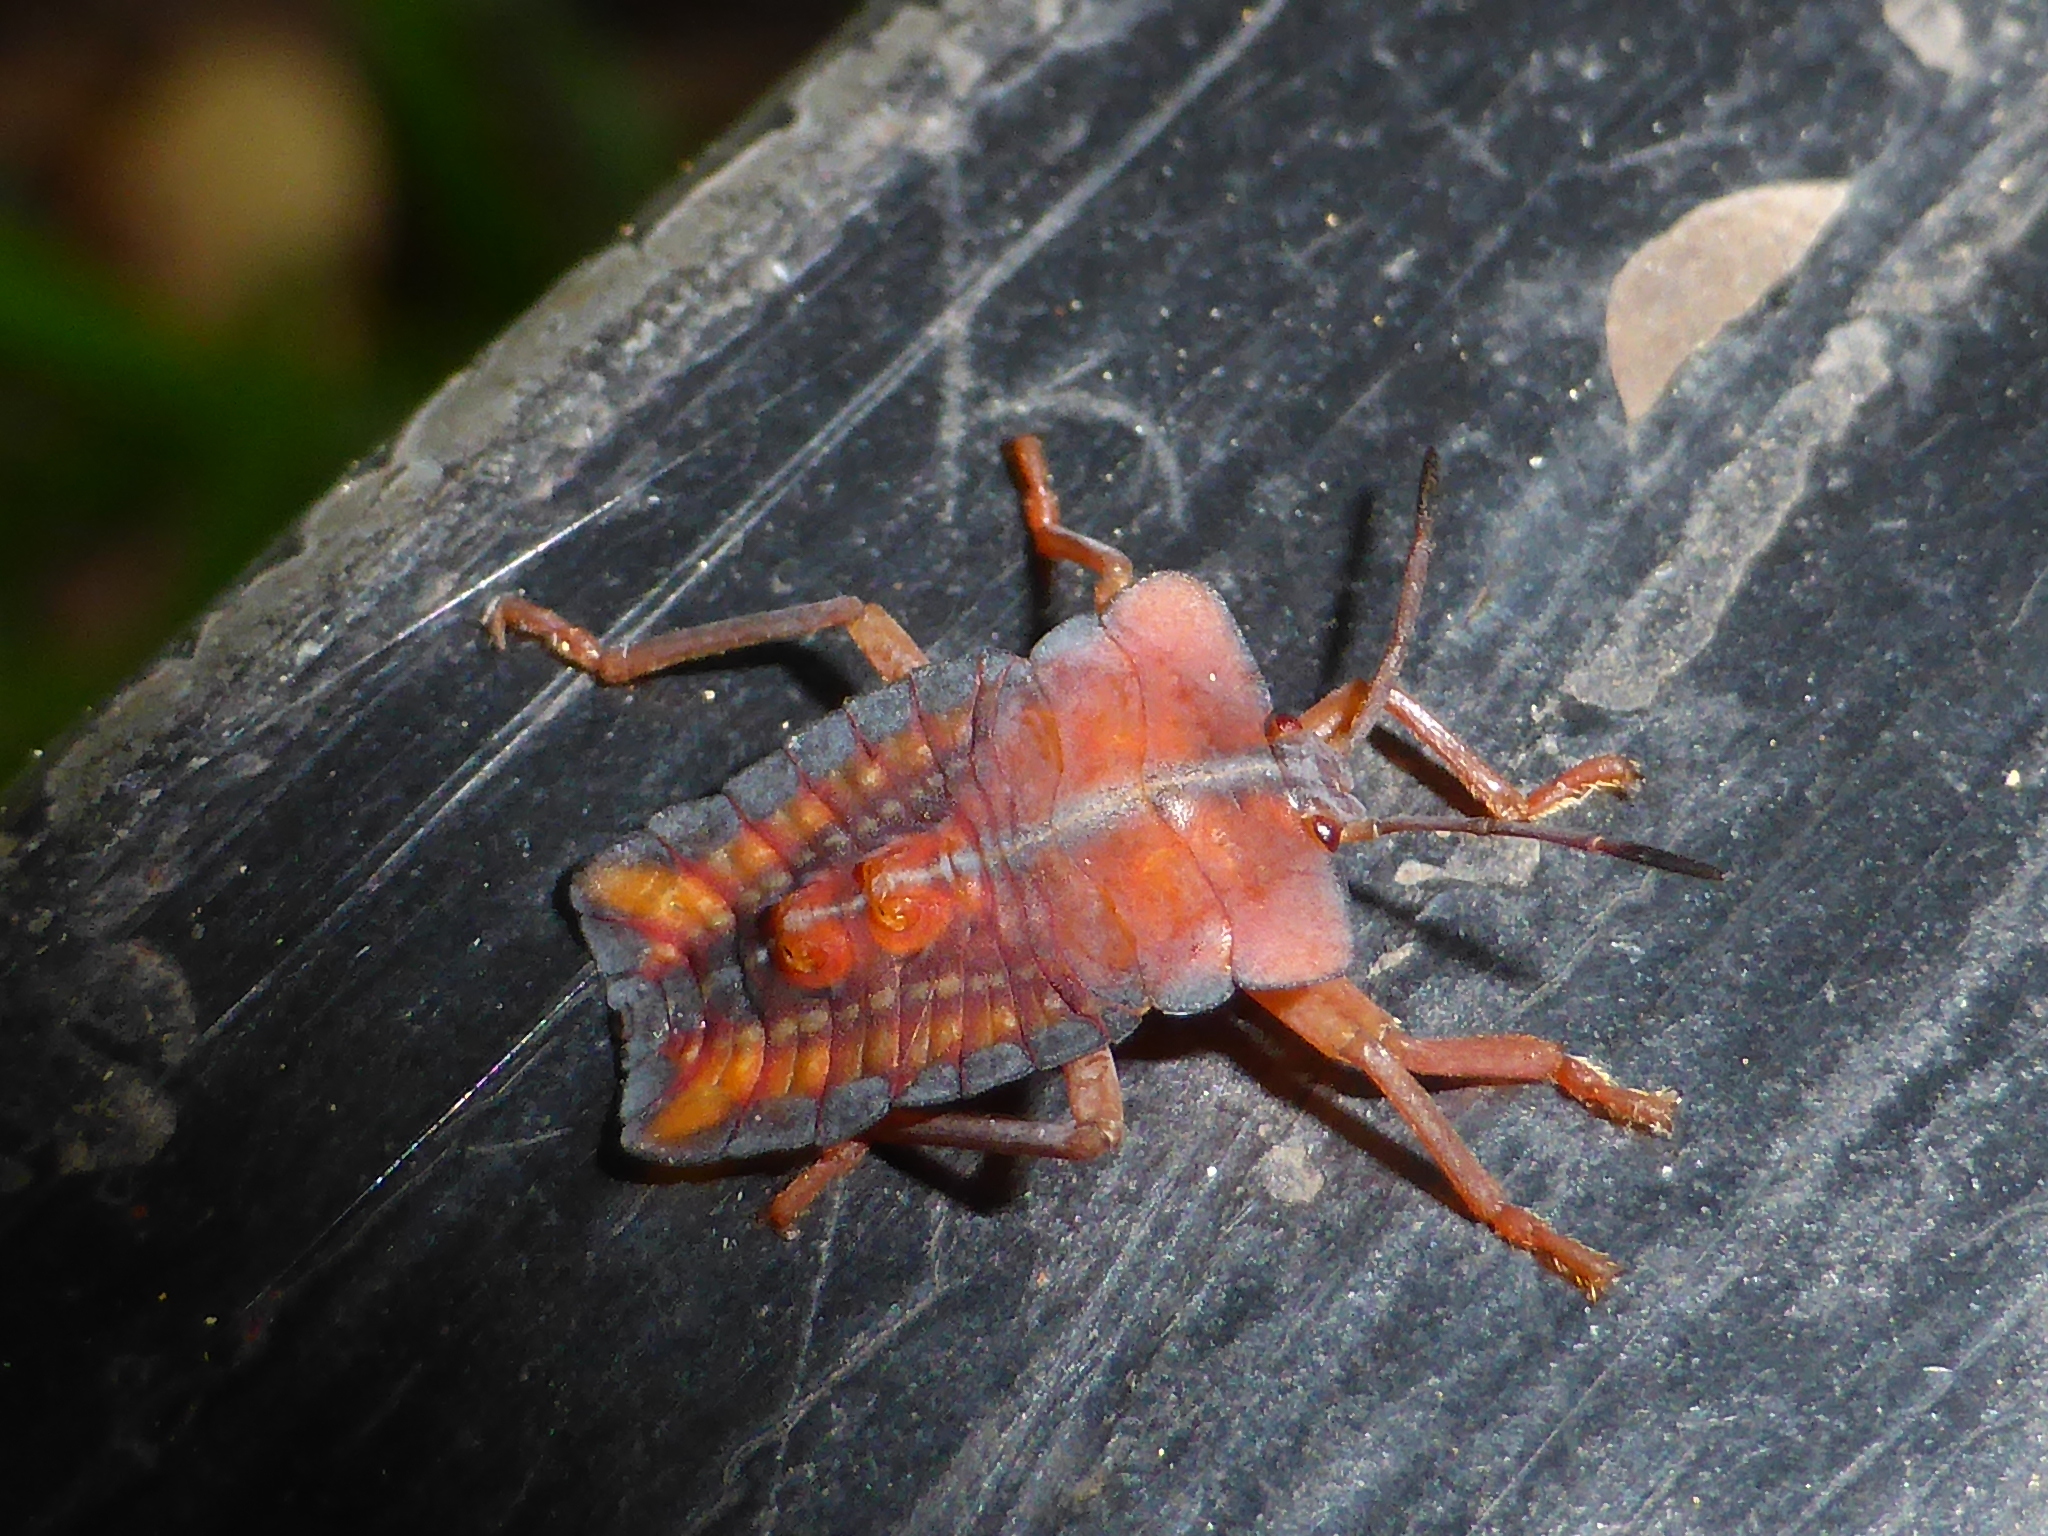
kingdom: Animalia
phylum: Arthropoda
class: Insecta
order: Hemiptera
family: Tessaratomidae
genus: Tessaratoma
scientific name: Tessaratoma papillosa
